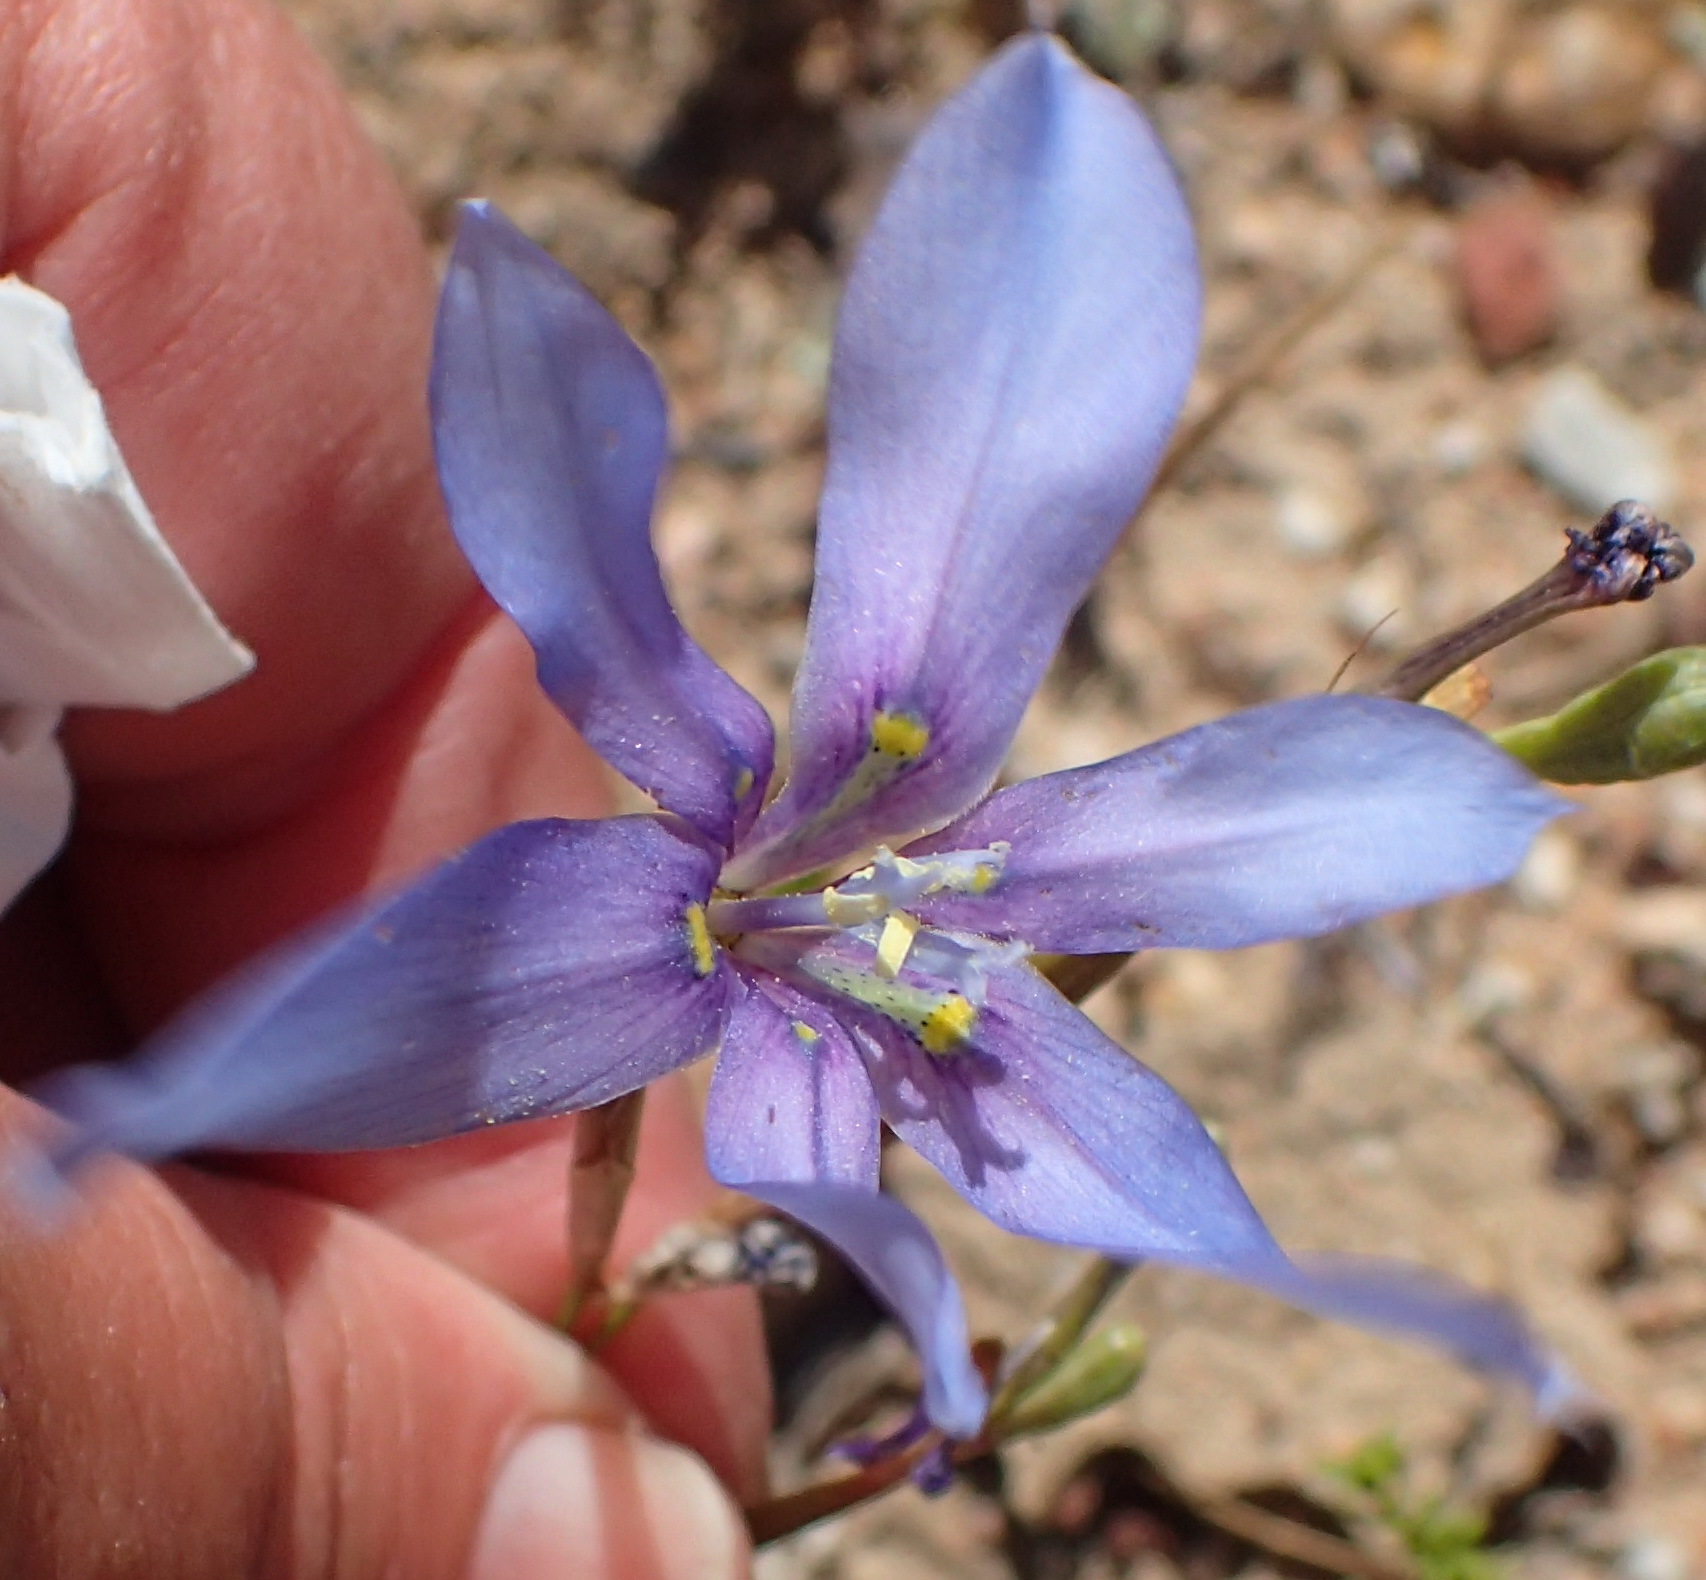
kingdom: Plantae
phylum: Tracheophyta
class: Liliopsida
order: Asparagales
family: Iridaceae
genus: Moraea
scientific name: Moraea polyanthos
